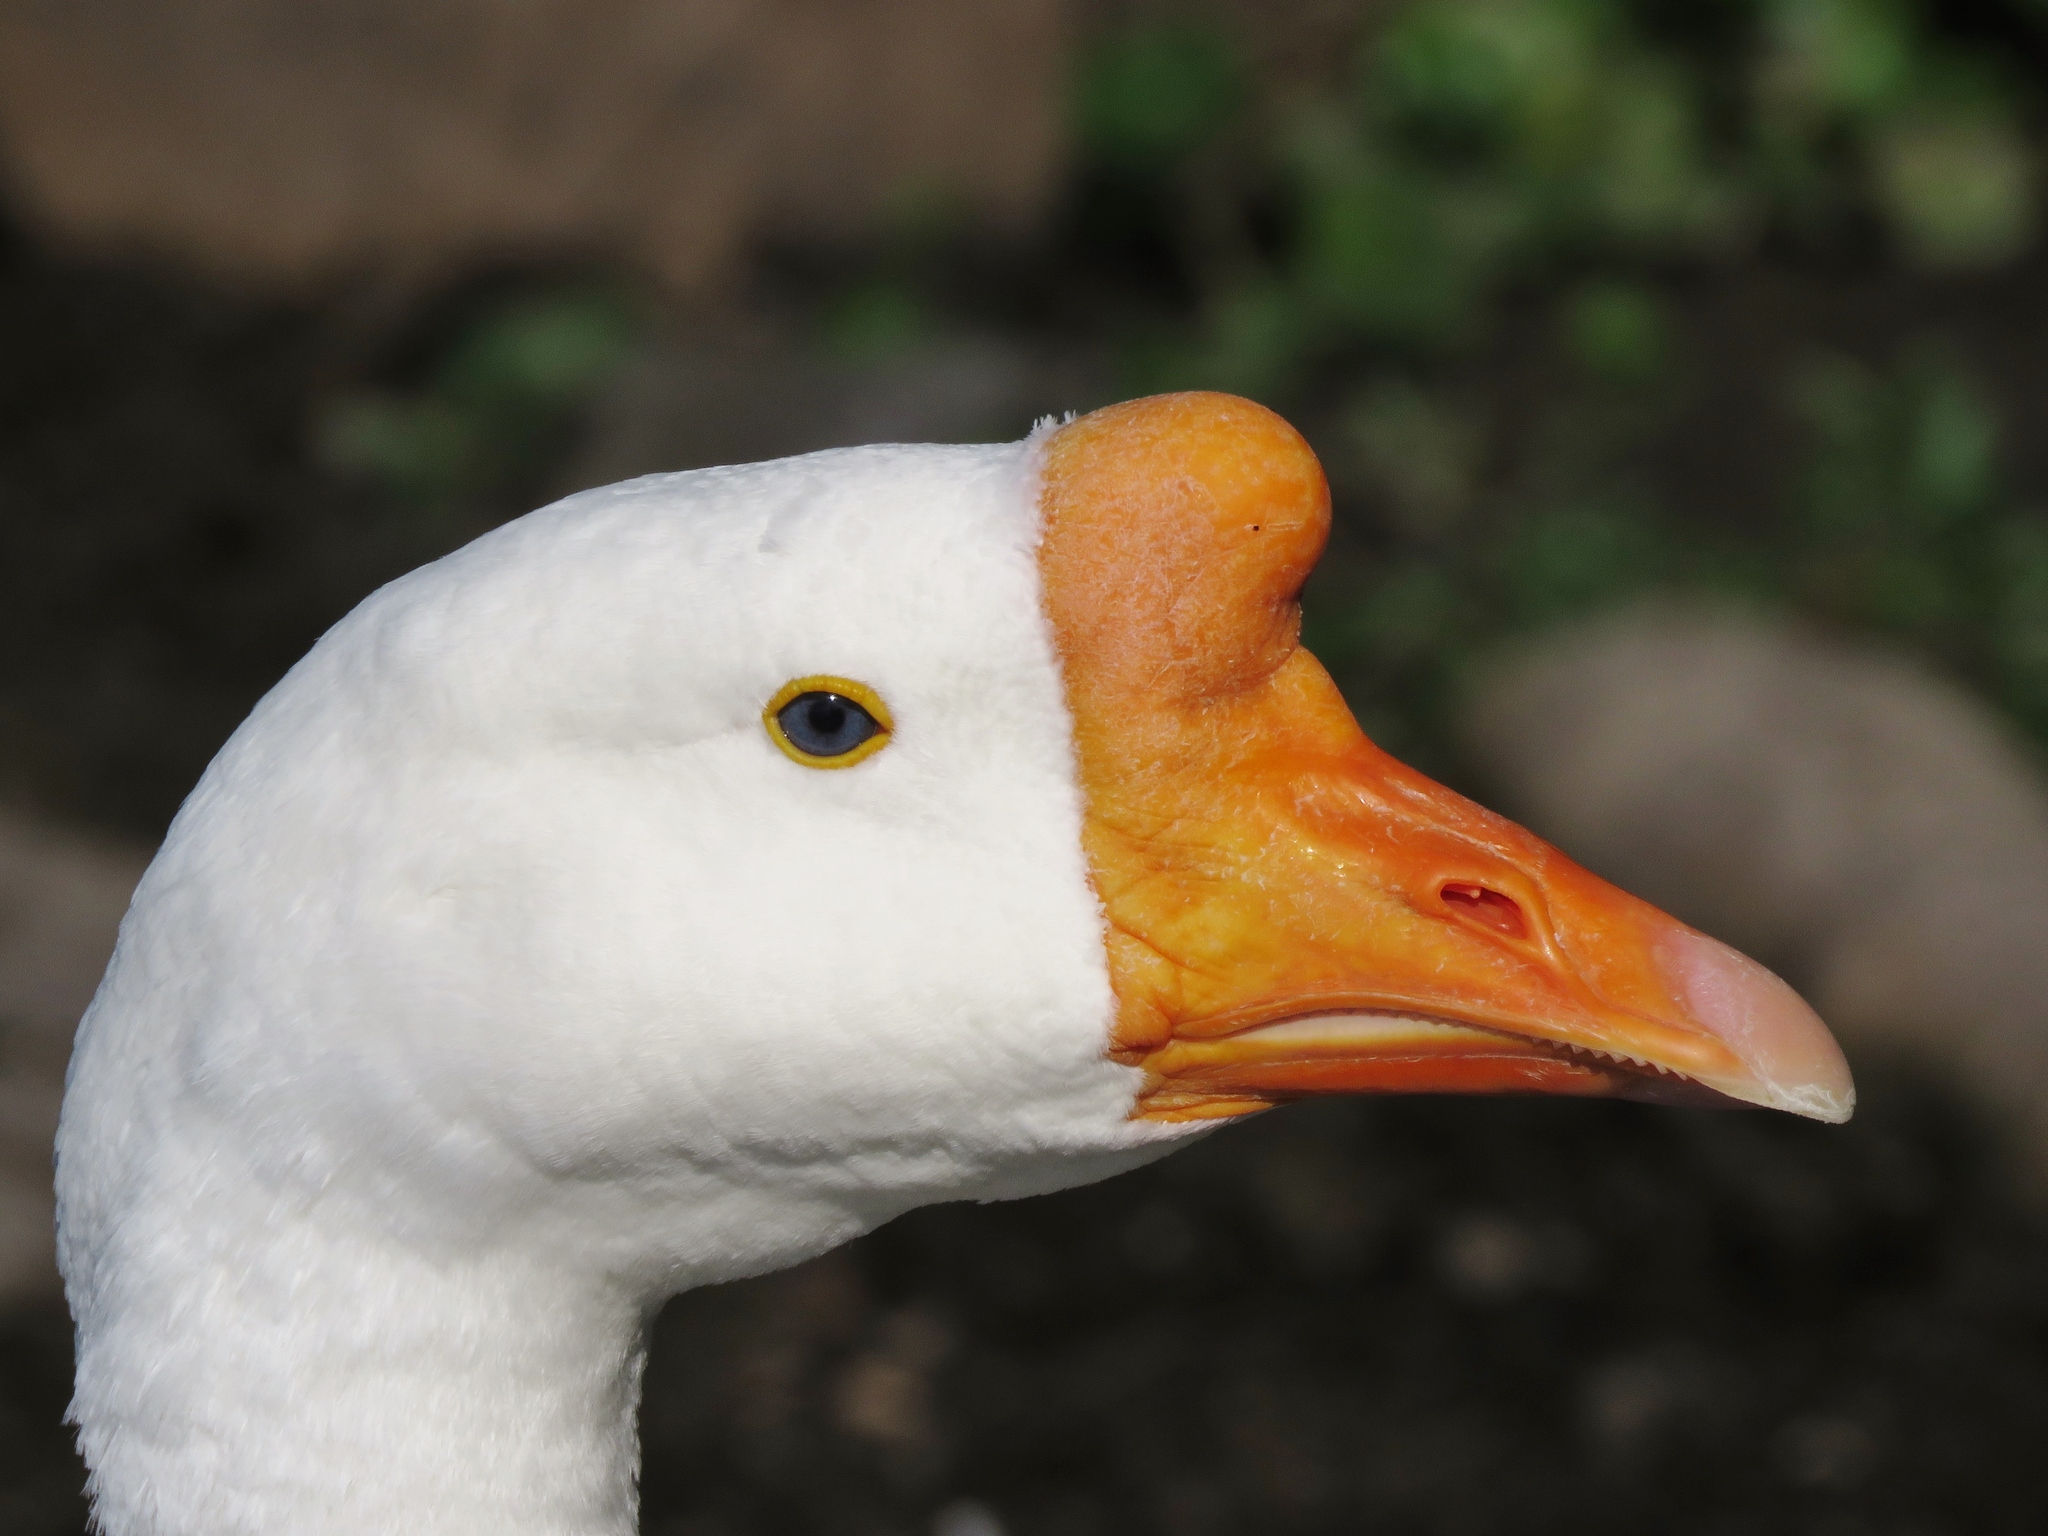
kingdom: Animalia
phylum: Chordata
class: Aves
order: Anseriformes
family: Anatidae
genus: Anser
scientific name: Anser cygnoides
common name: Swan goose
